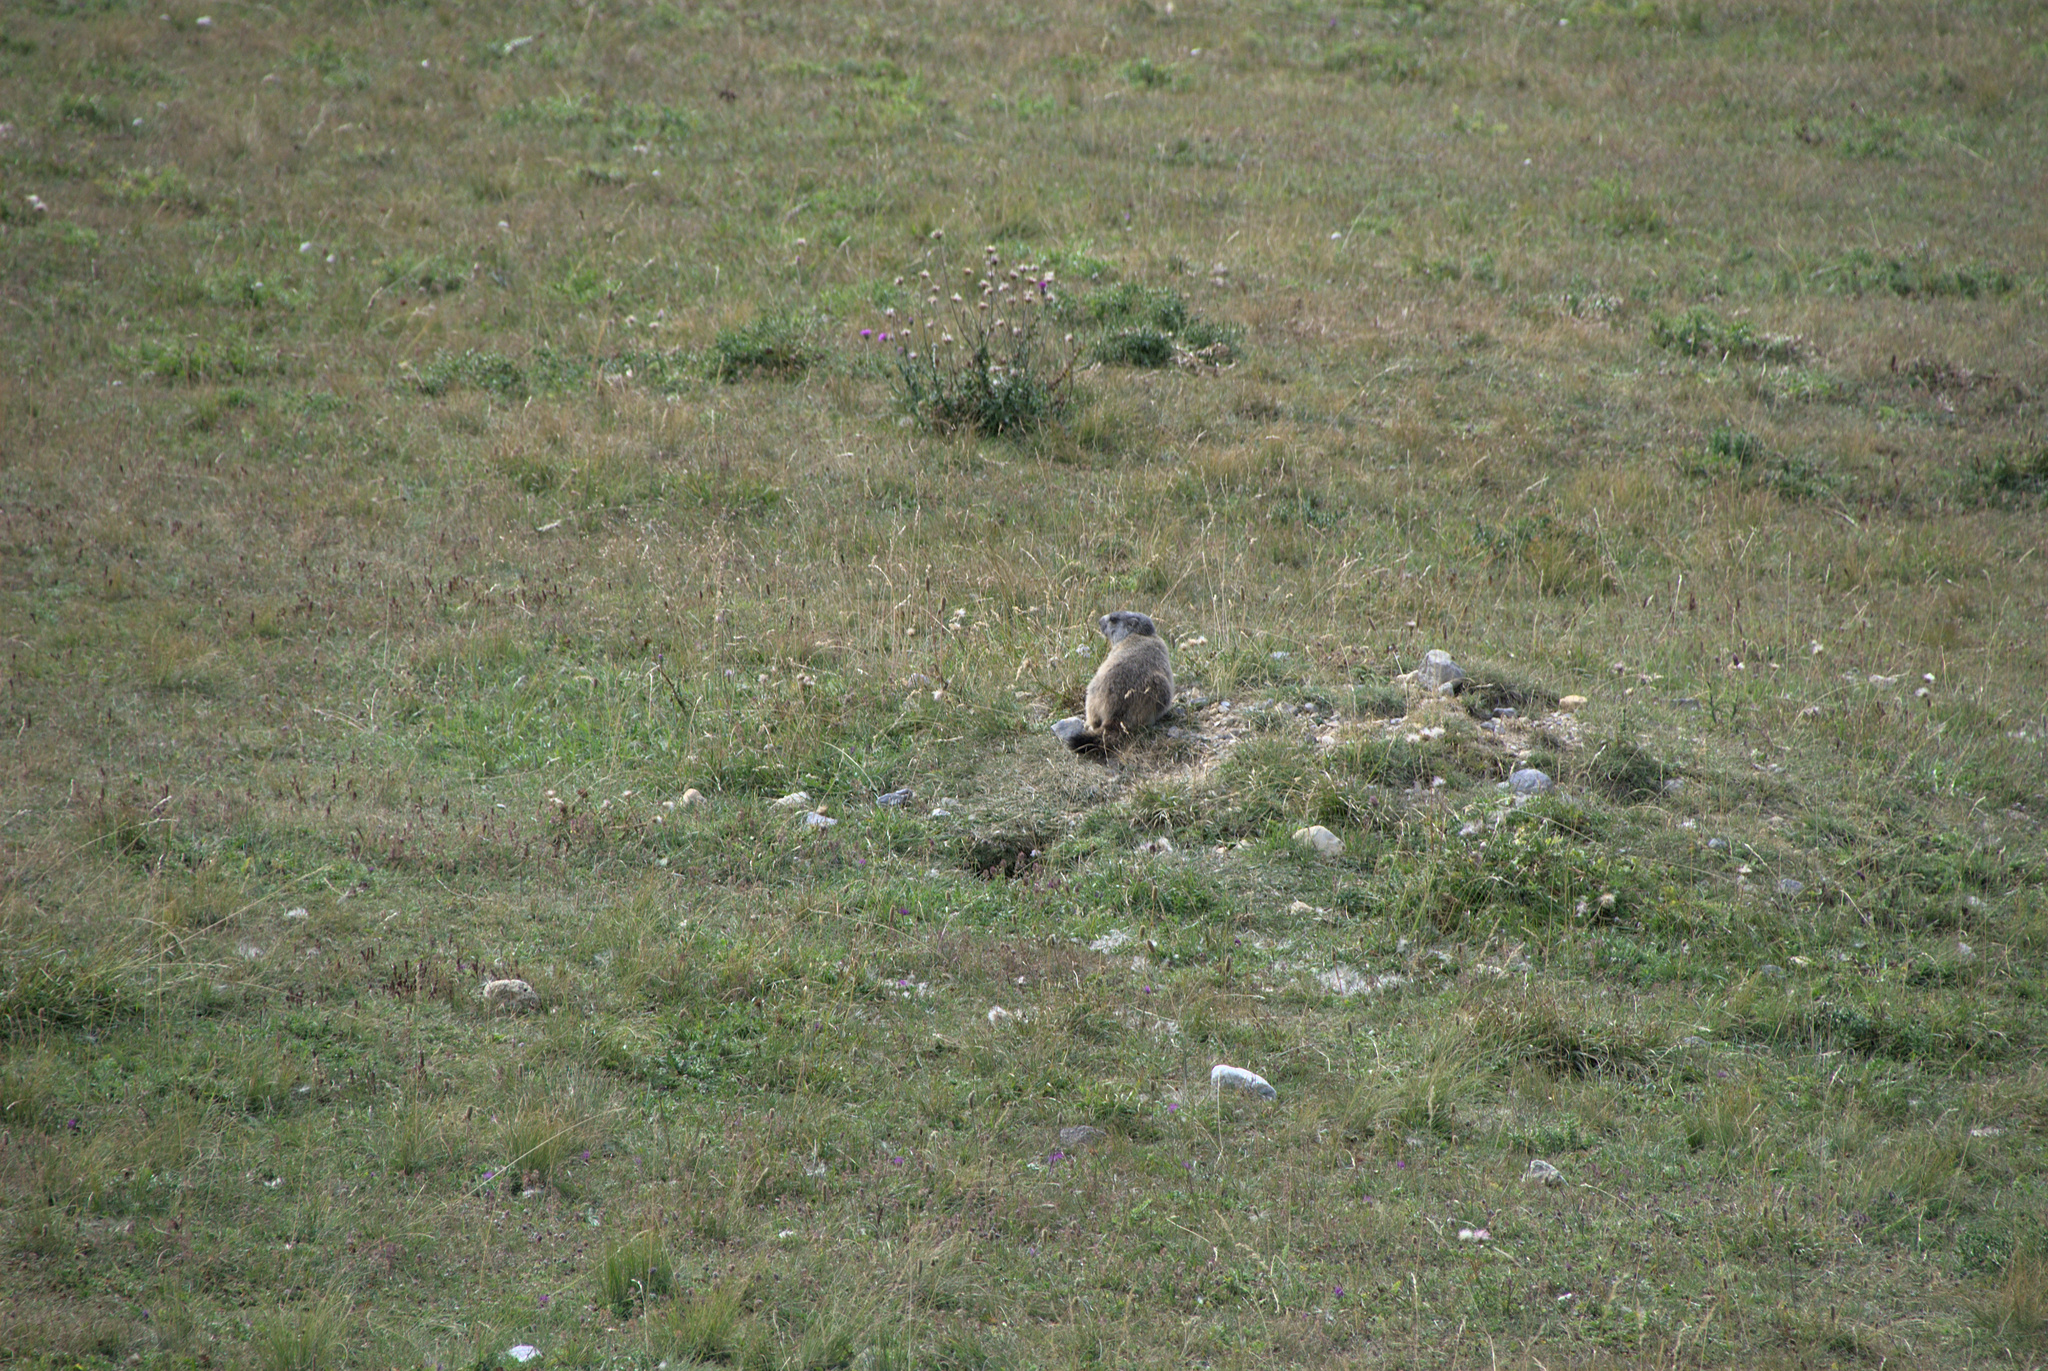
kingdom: Animalia
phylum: Chordata
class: Mammalia
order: Rodentia
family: Sciuridae
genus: Marmota
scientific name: Marmota marmota
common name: Alpine marmot
